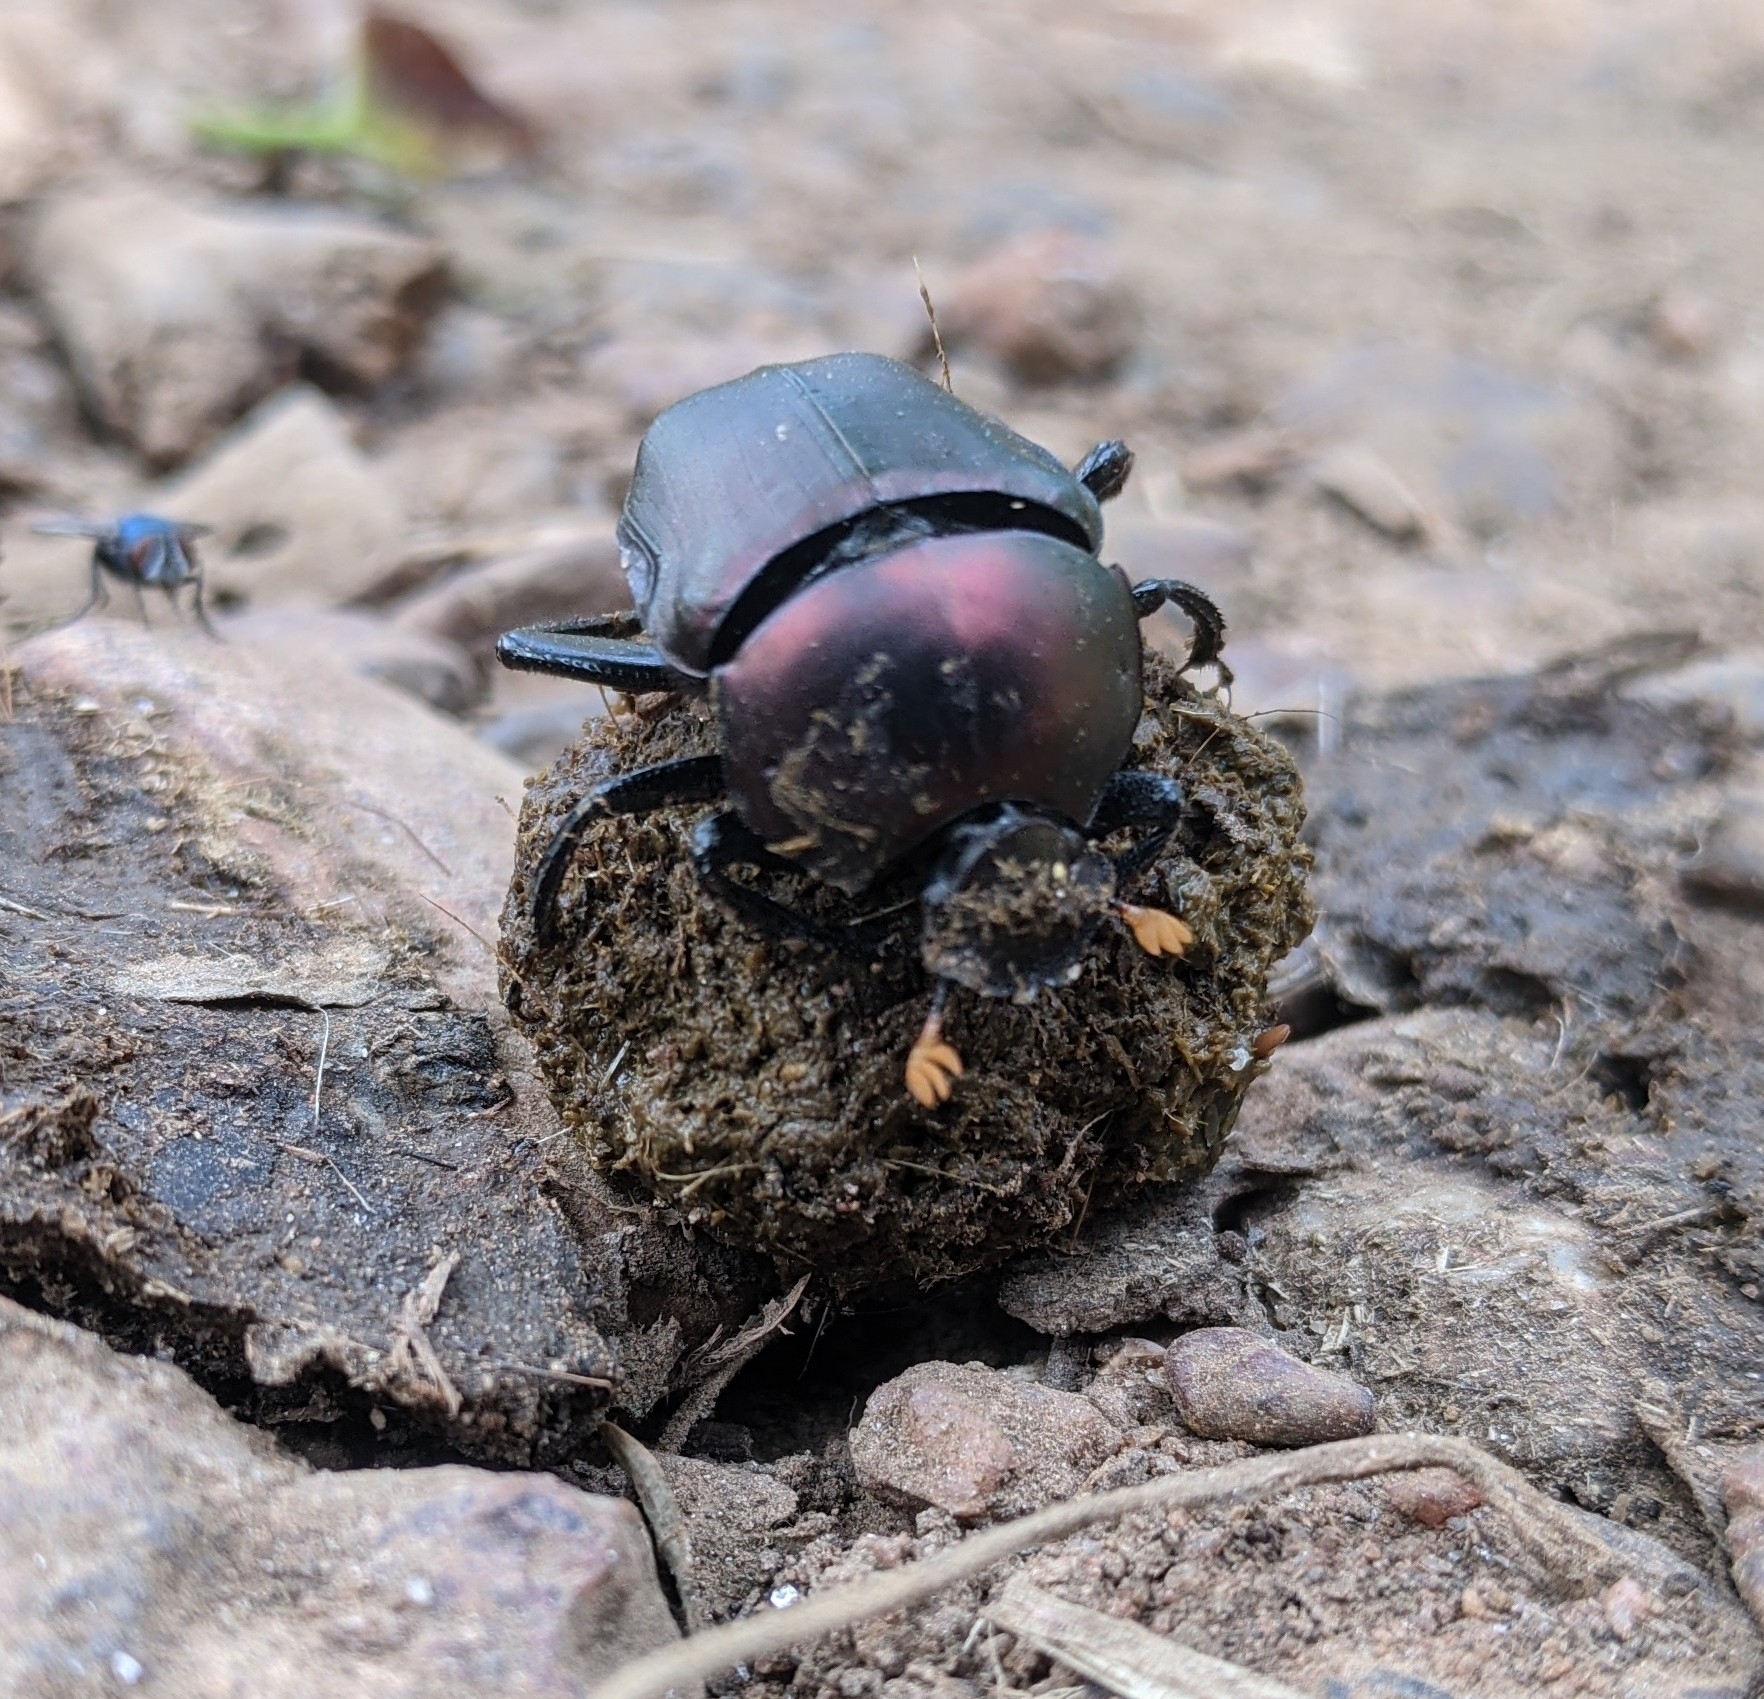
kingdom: Animalia
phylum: Arthropoda
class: Insecta
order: Coleoptera
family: Scarabaeidae
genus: Paragymnopleurus
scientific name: Paragymnopleurus sinuatus
